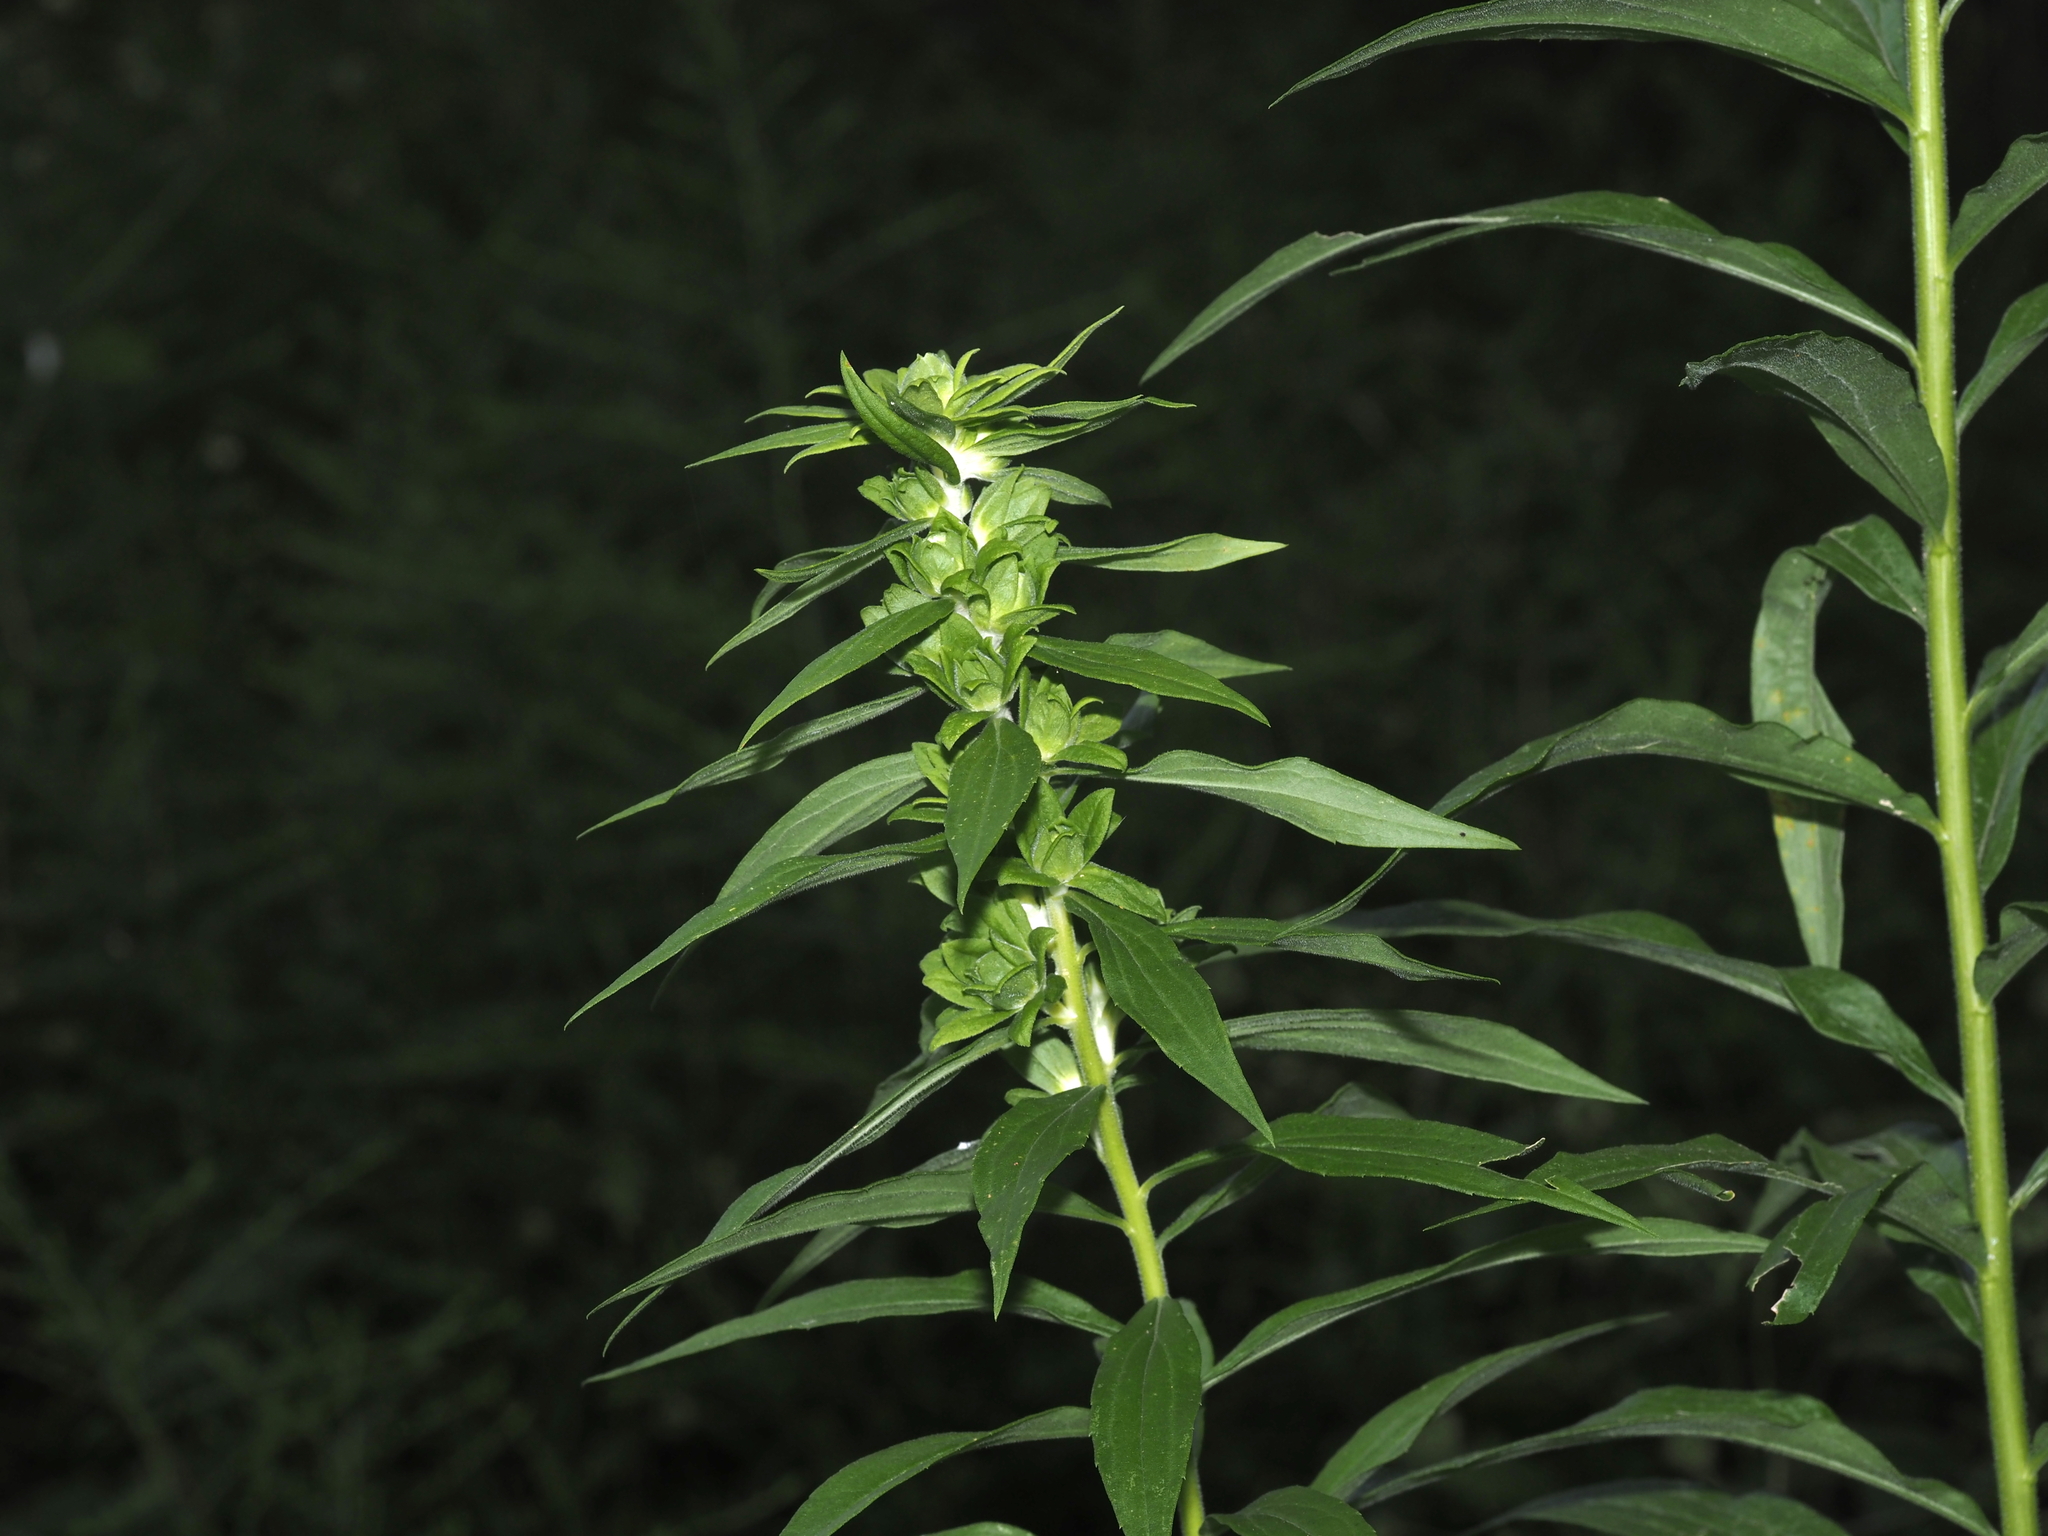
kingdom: Animalia
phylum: Arthropoda
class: Insecta
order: Diptera
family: Tephritidae
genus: Procecidochares
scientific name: Procecidochares atra
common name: Goldenrod brussels sprout gall fly
